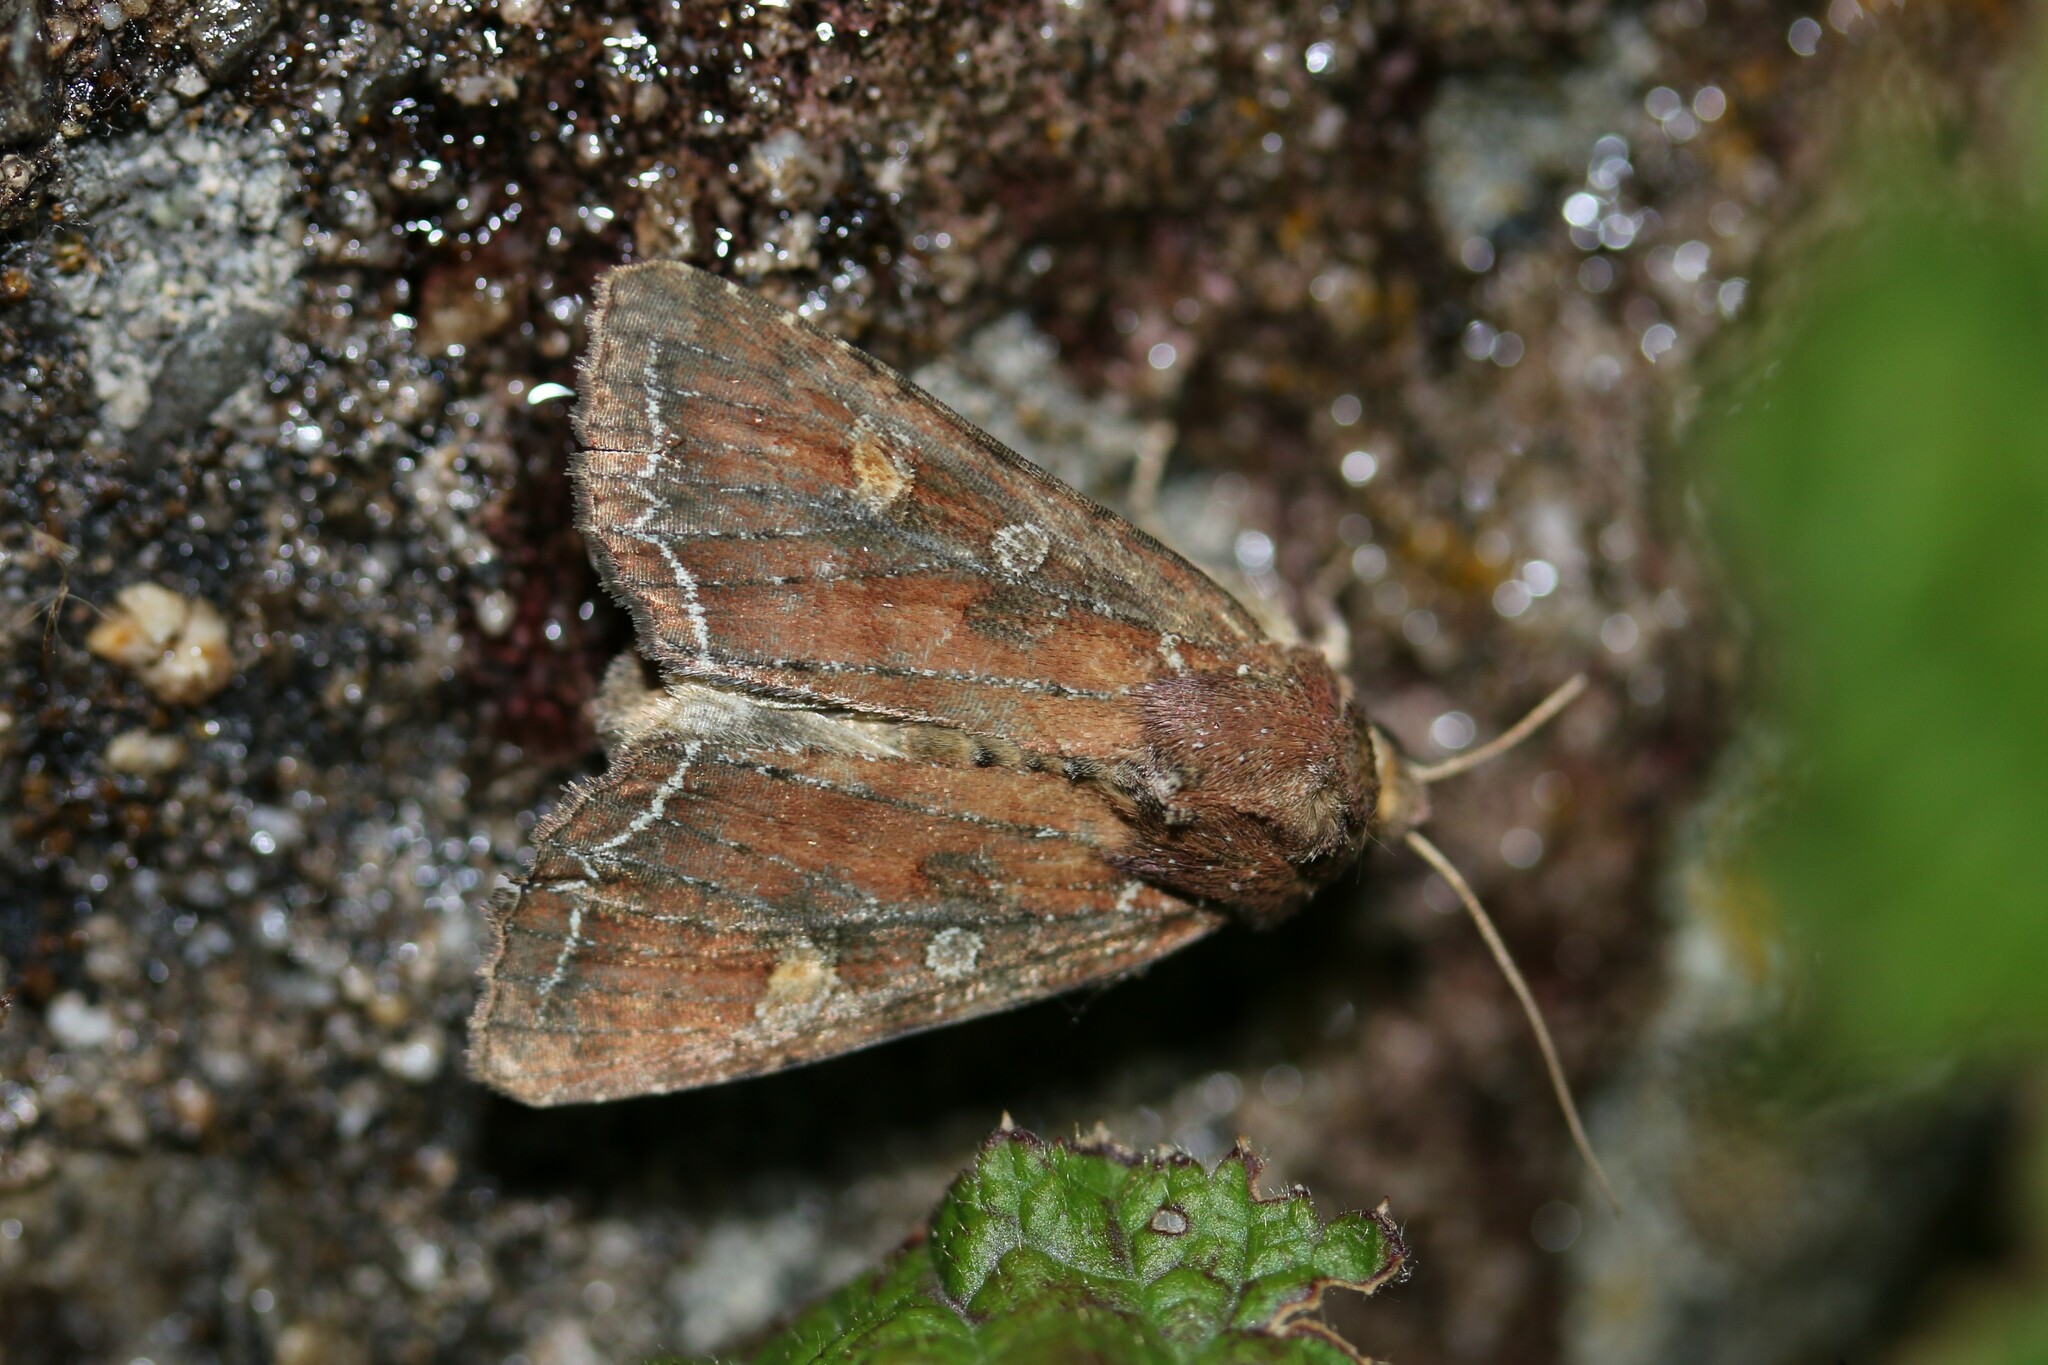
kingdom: Animalia
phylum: Arthropoda
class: Insecta
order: Lepidoptera
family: Noctuidae
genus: Lacanobia
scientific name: Lacanobia oleracea
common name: Bright-line brown-eye
